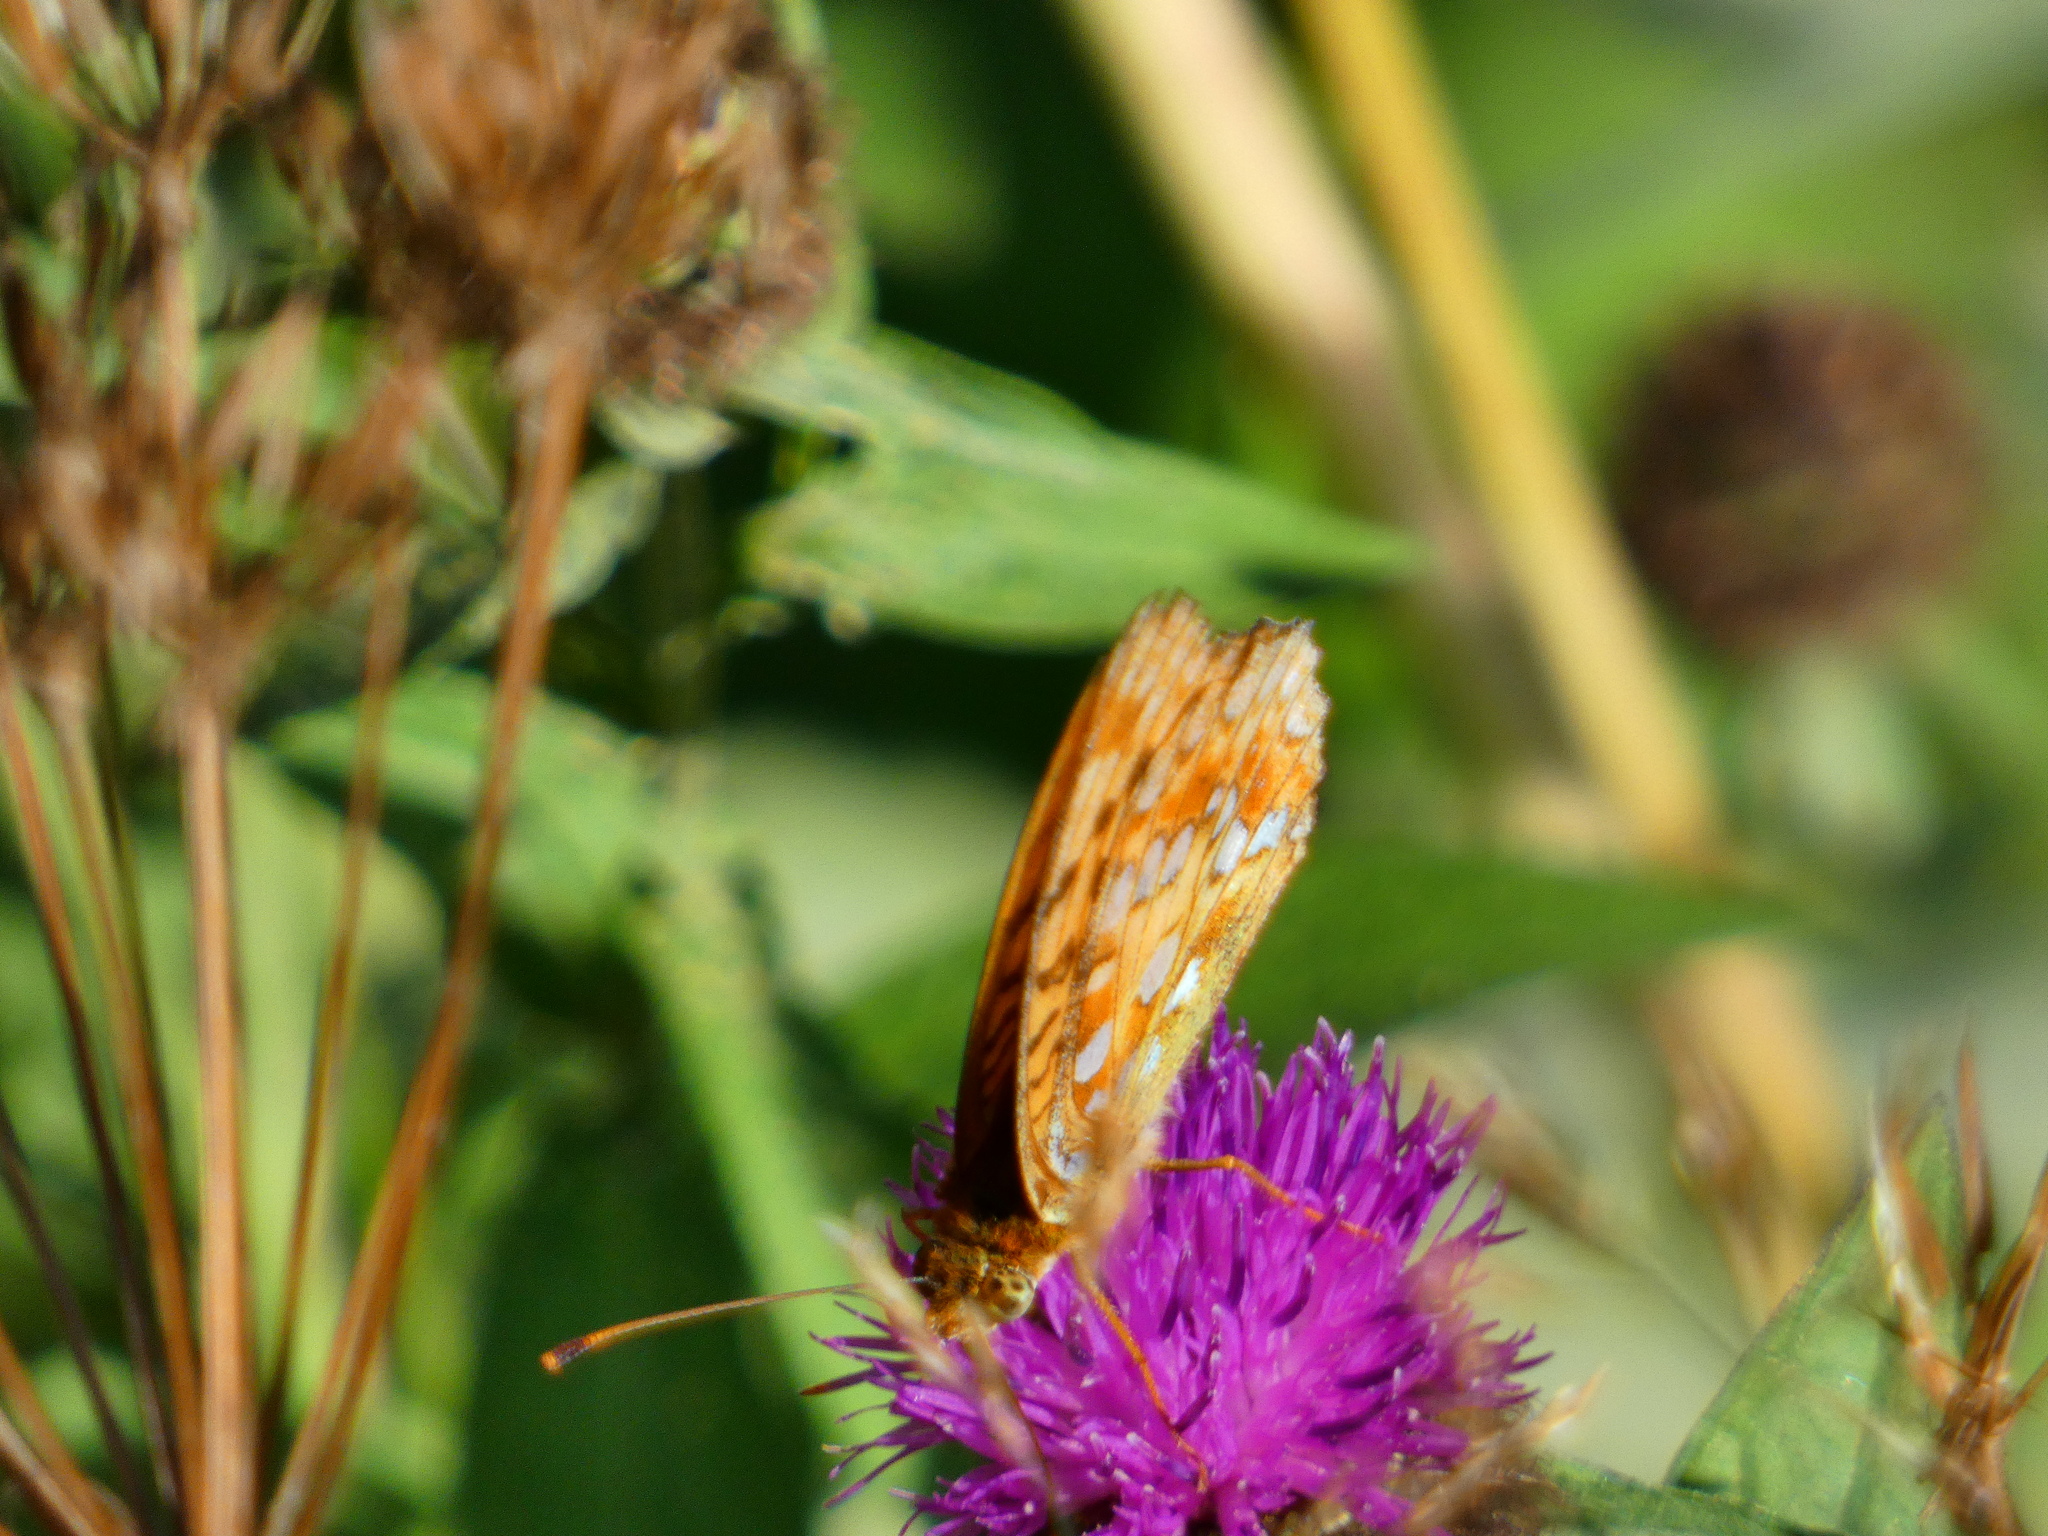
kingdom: Animalia
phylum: Arthropoda
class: Insecta
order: Lepidoptera
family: Nymphalidae
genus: Fabriciana
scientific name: Fabriciana adippe
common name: High brown fritillary
